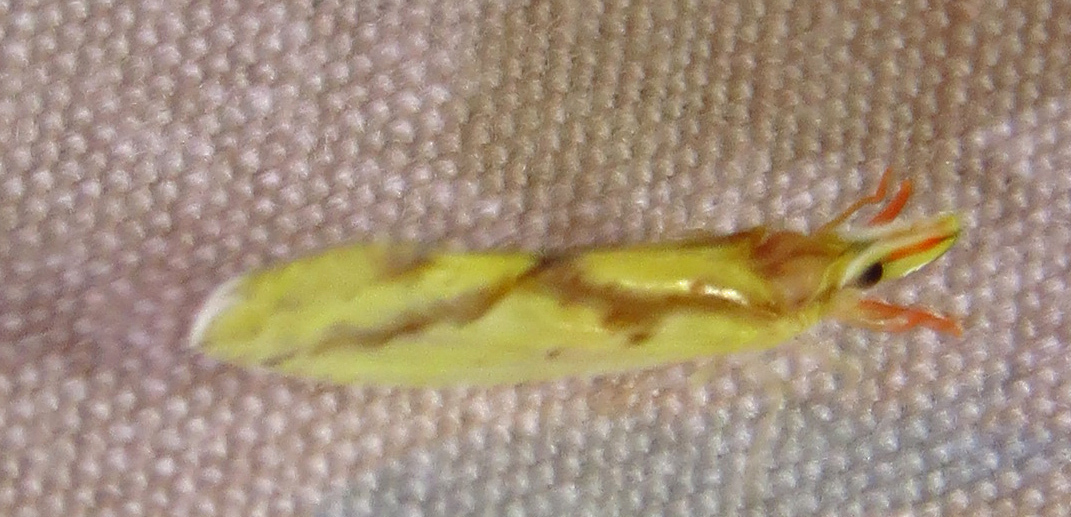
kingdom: Animalia
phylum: Arthropoda
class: Insecta
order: Hemiptera
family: Derbidae
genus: Otiocerus
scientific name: Otiocerus wolfii
